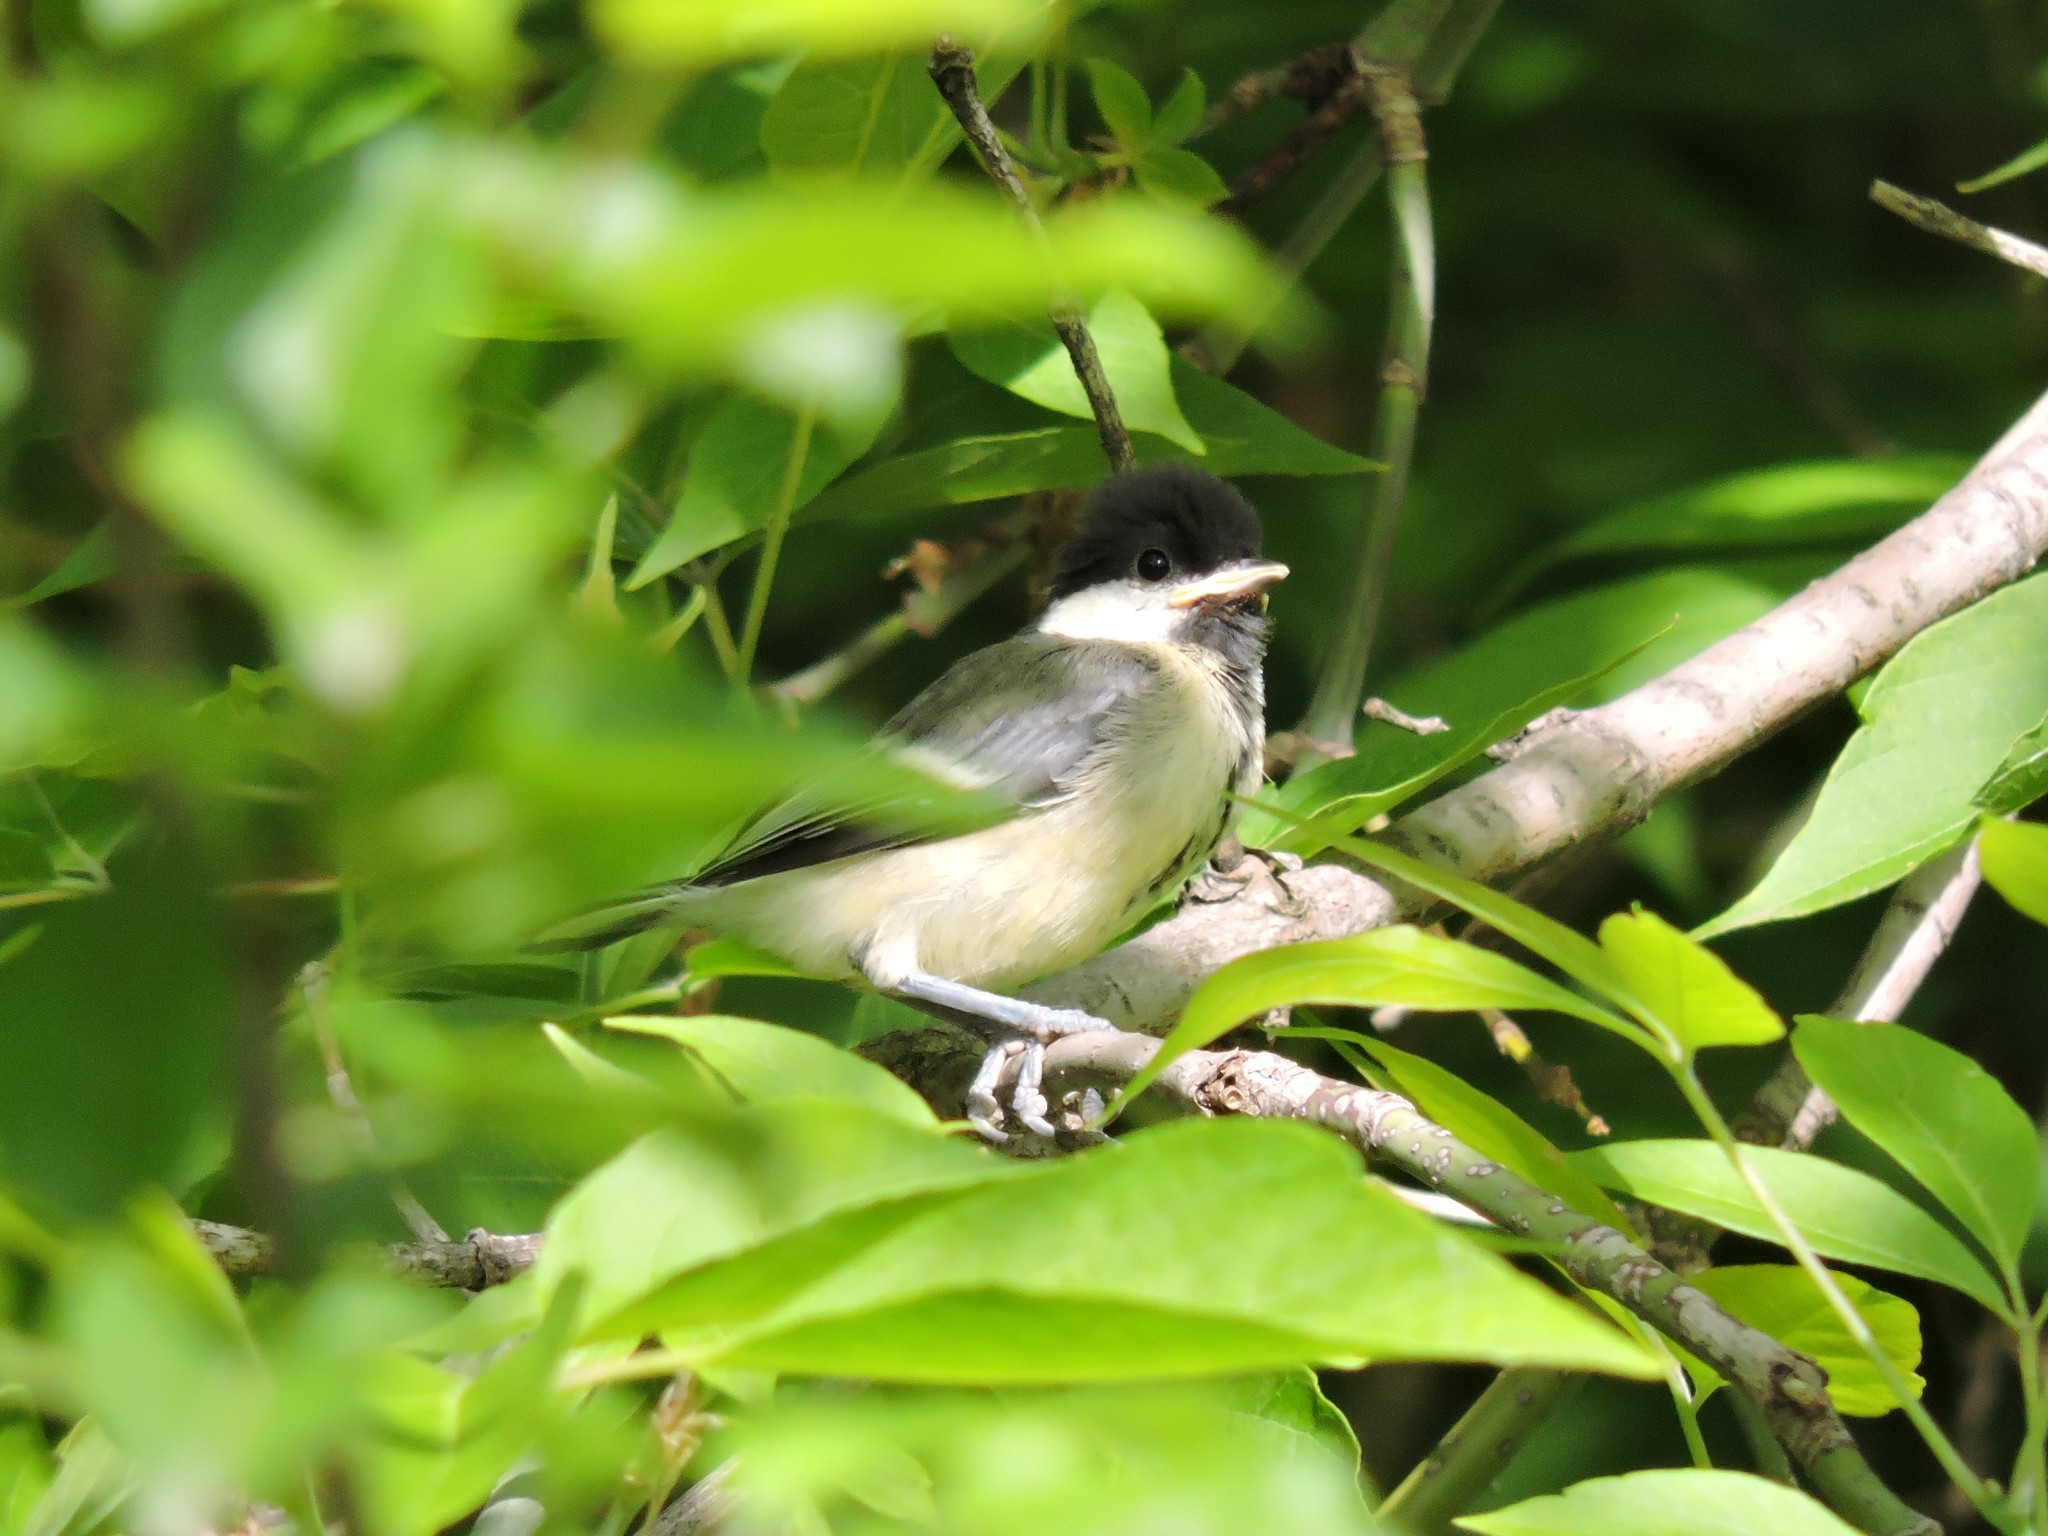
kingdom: Animalia
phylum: Chordata
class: Aves
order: Passeriformes
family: Paridae
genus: Parus
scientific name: Parus major
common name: Great tit
